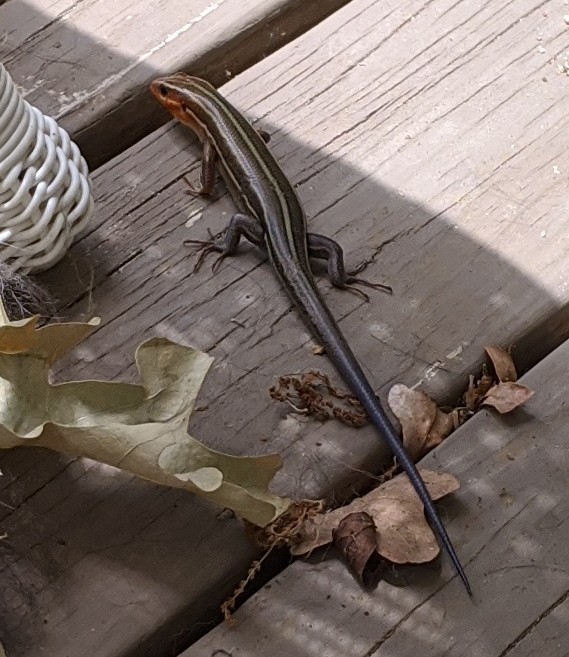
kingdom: Animalia
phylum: Chordata
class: Squamata
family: Scincidae
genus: Plestiodon
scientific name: Plestiodon laticeps
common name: Broadhead skink
